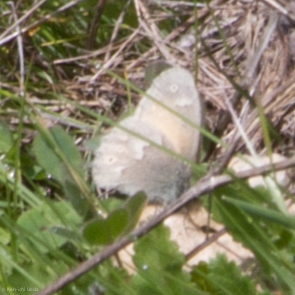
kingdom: Animalia
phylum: Arthropoda
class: Insecta
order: Lepidoptera
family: Nymphalidae
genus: Coenonympha
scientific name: Coenonympha california
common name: Common ringlet
